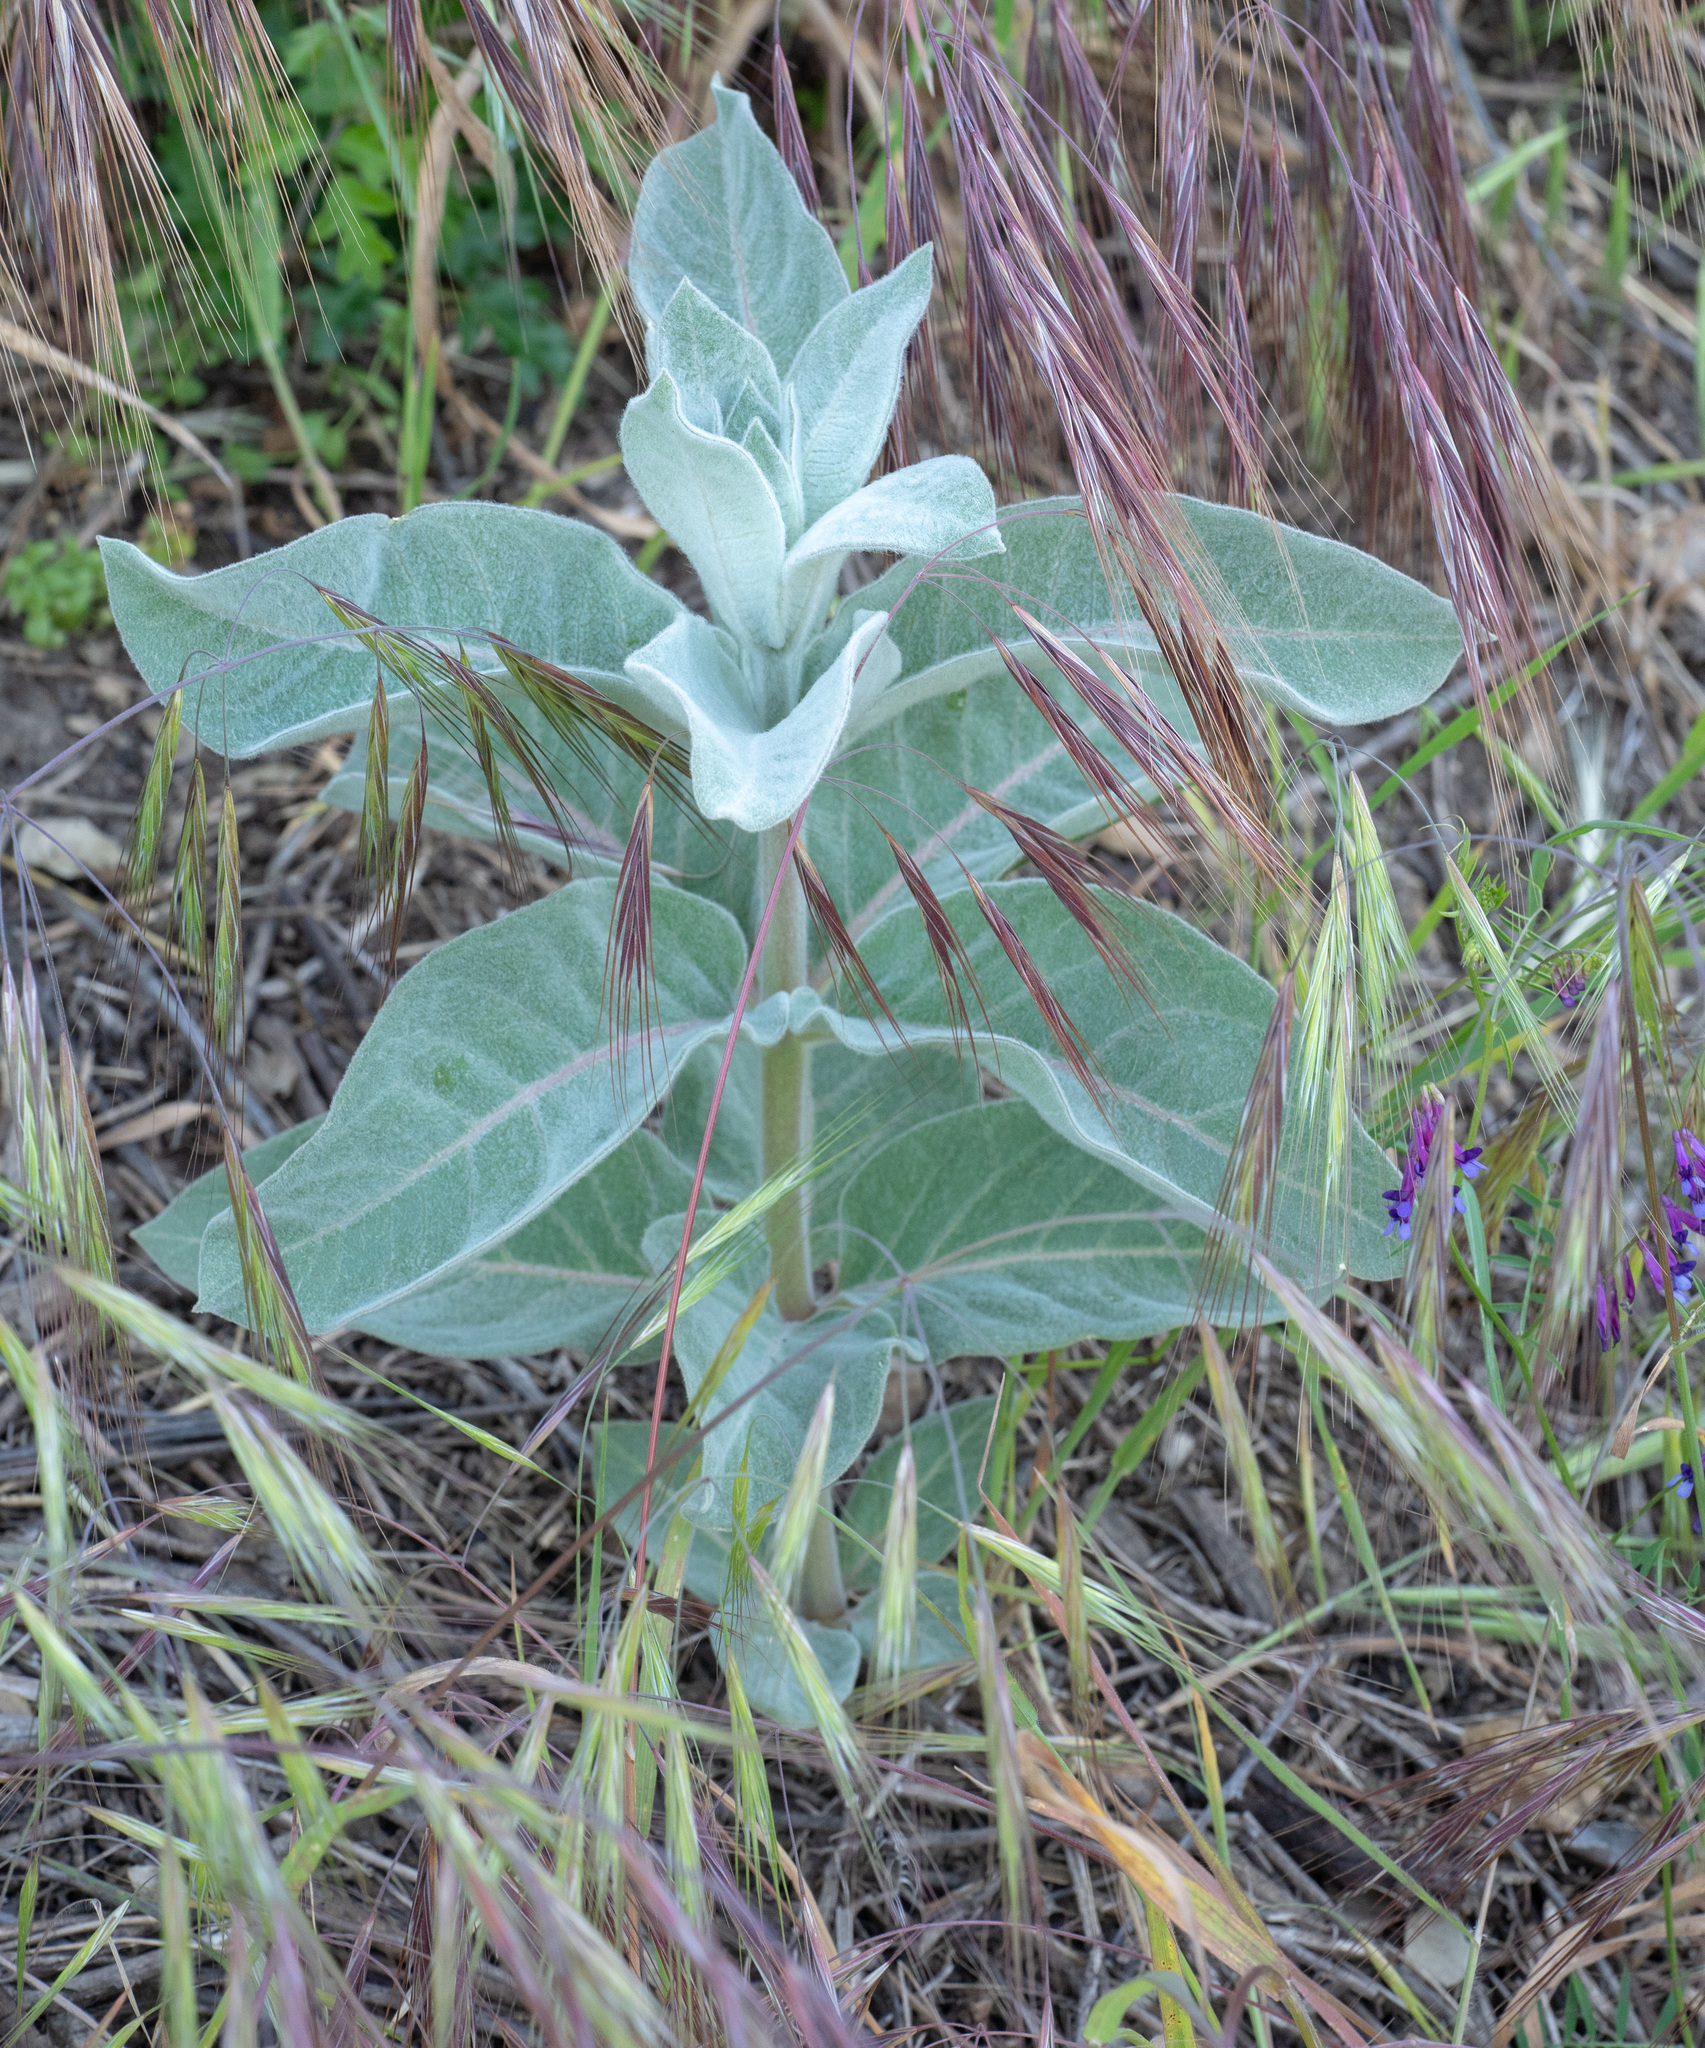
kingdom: Plantae
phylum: Tracheophyta
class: Magnoliopsida
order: Gentianales
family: Apocynaceae
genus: Asclepias
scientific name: Asclepias eriocarpa
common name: Indian milkweed
